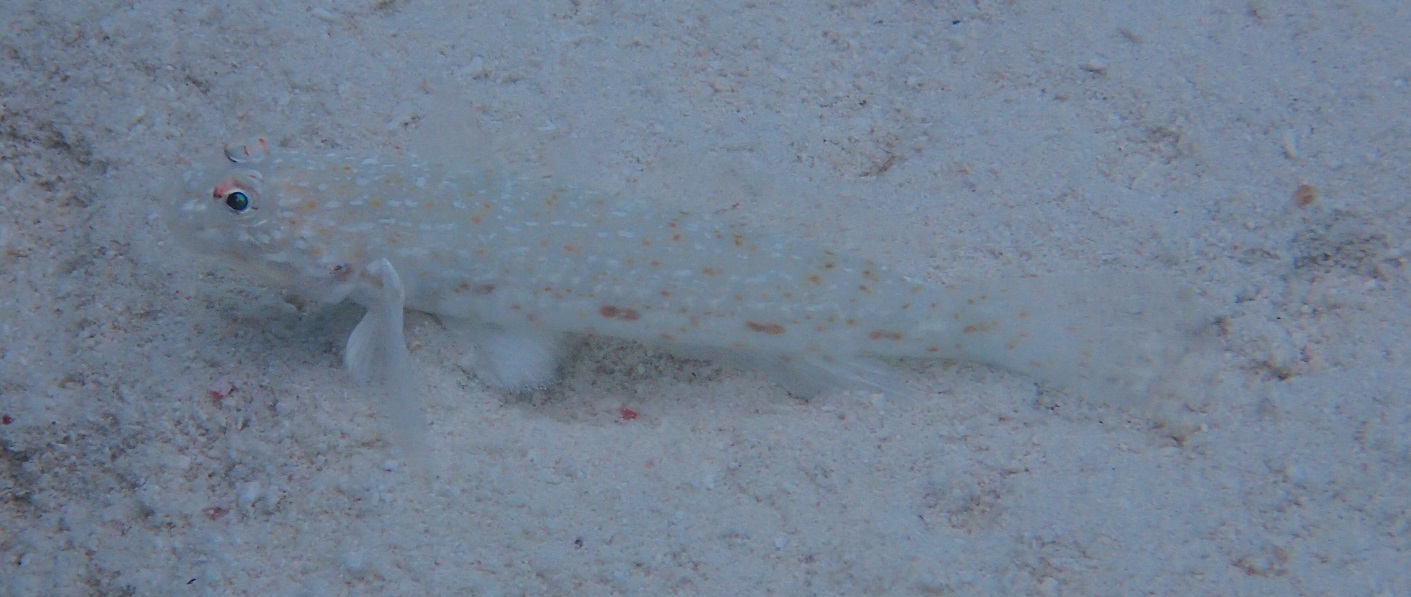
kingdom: Animalia
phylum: Chordata
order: Perciformes
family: Gobiidae
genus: Istigobius
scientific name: Istigobius rigilius
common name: Rigilius goby
